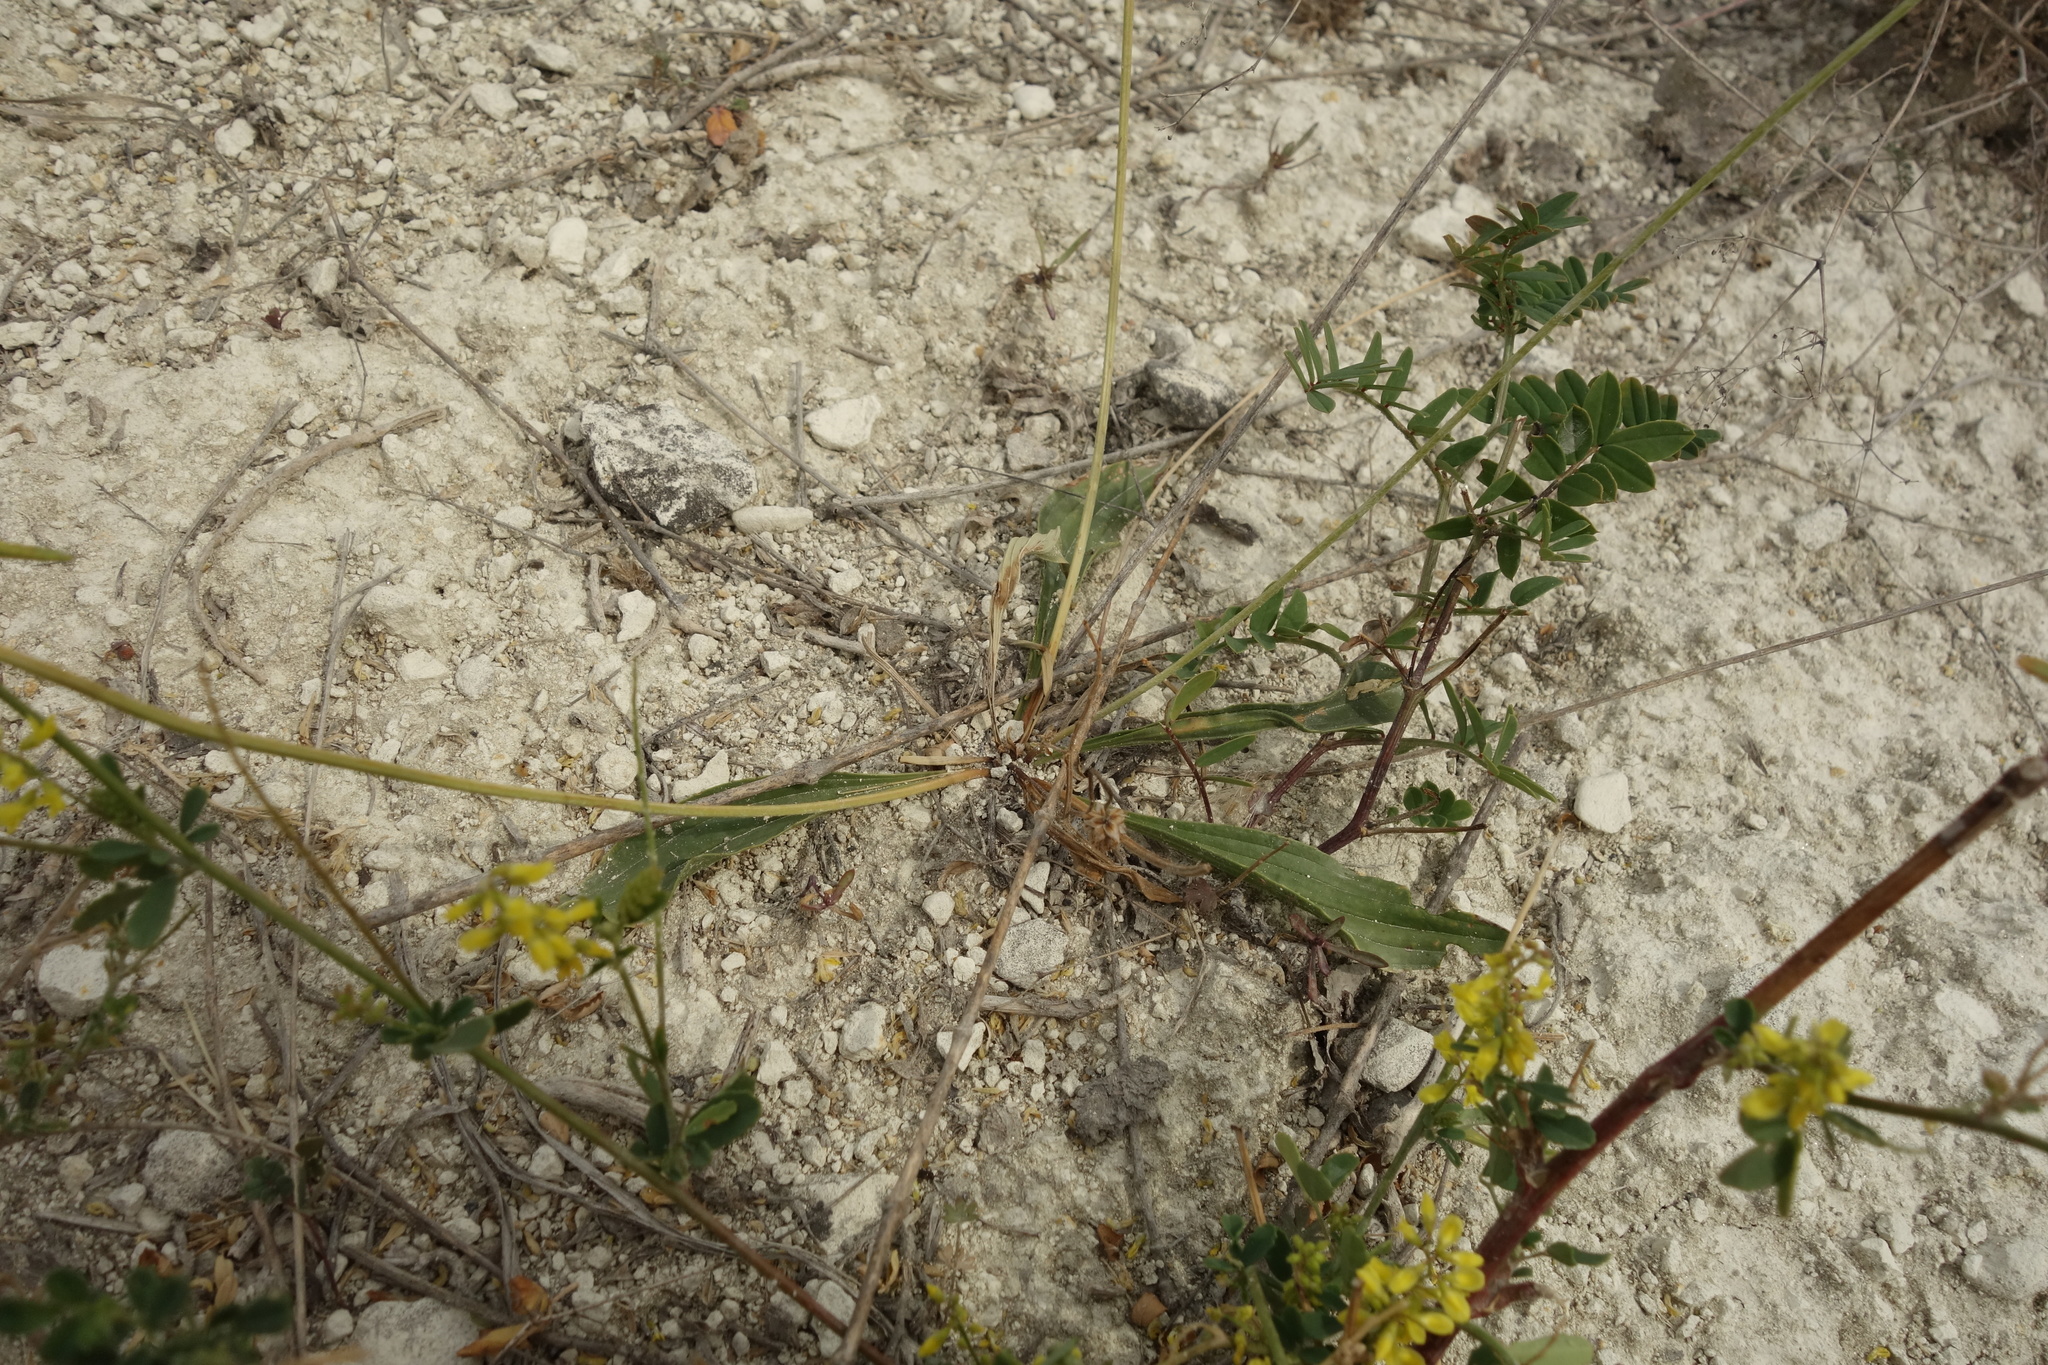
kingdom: Plantae
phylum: Tracheophyta
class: Magnoliopsida
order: Lamiales
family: Plantaginaceae
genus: Plantago
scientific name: Plantago lanceolata
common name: Ribwort plantain
